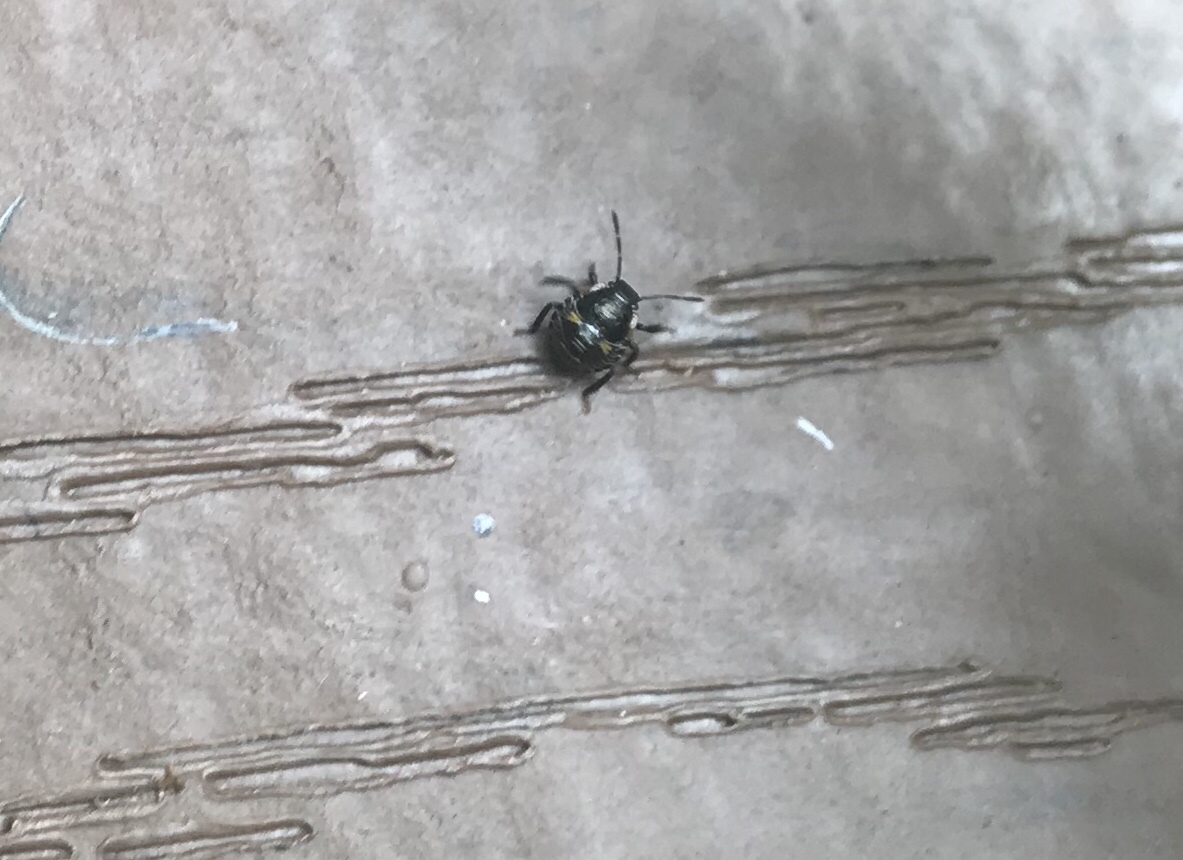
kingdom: Animalia
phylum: Arthropoda
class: Insecta
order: Hemiptera
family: Pentatomidae
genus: Chinavia
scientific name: Chinavia hilaris
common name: Green stink bug
